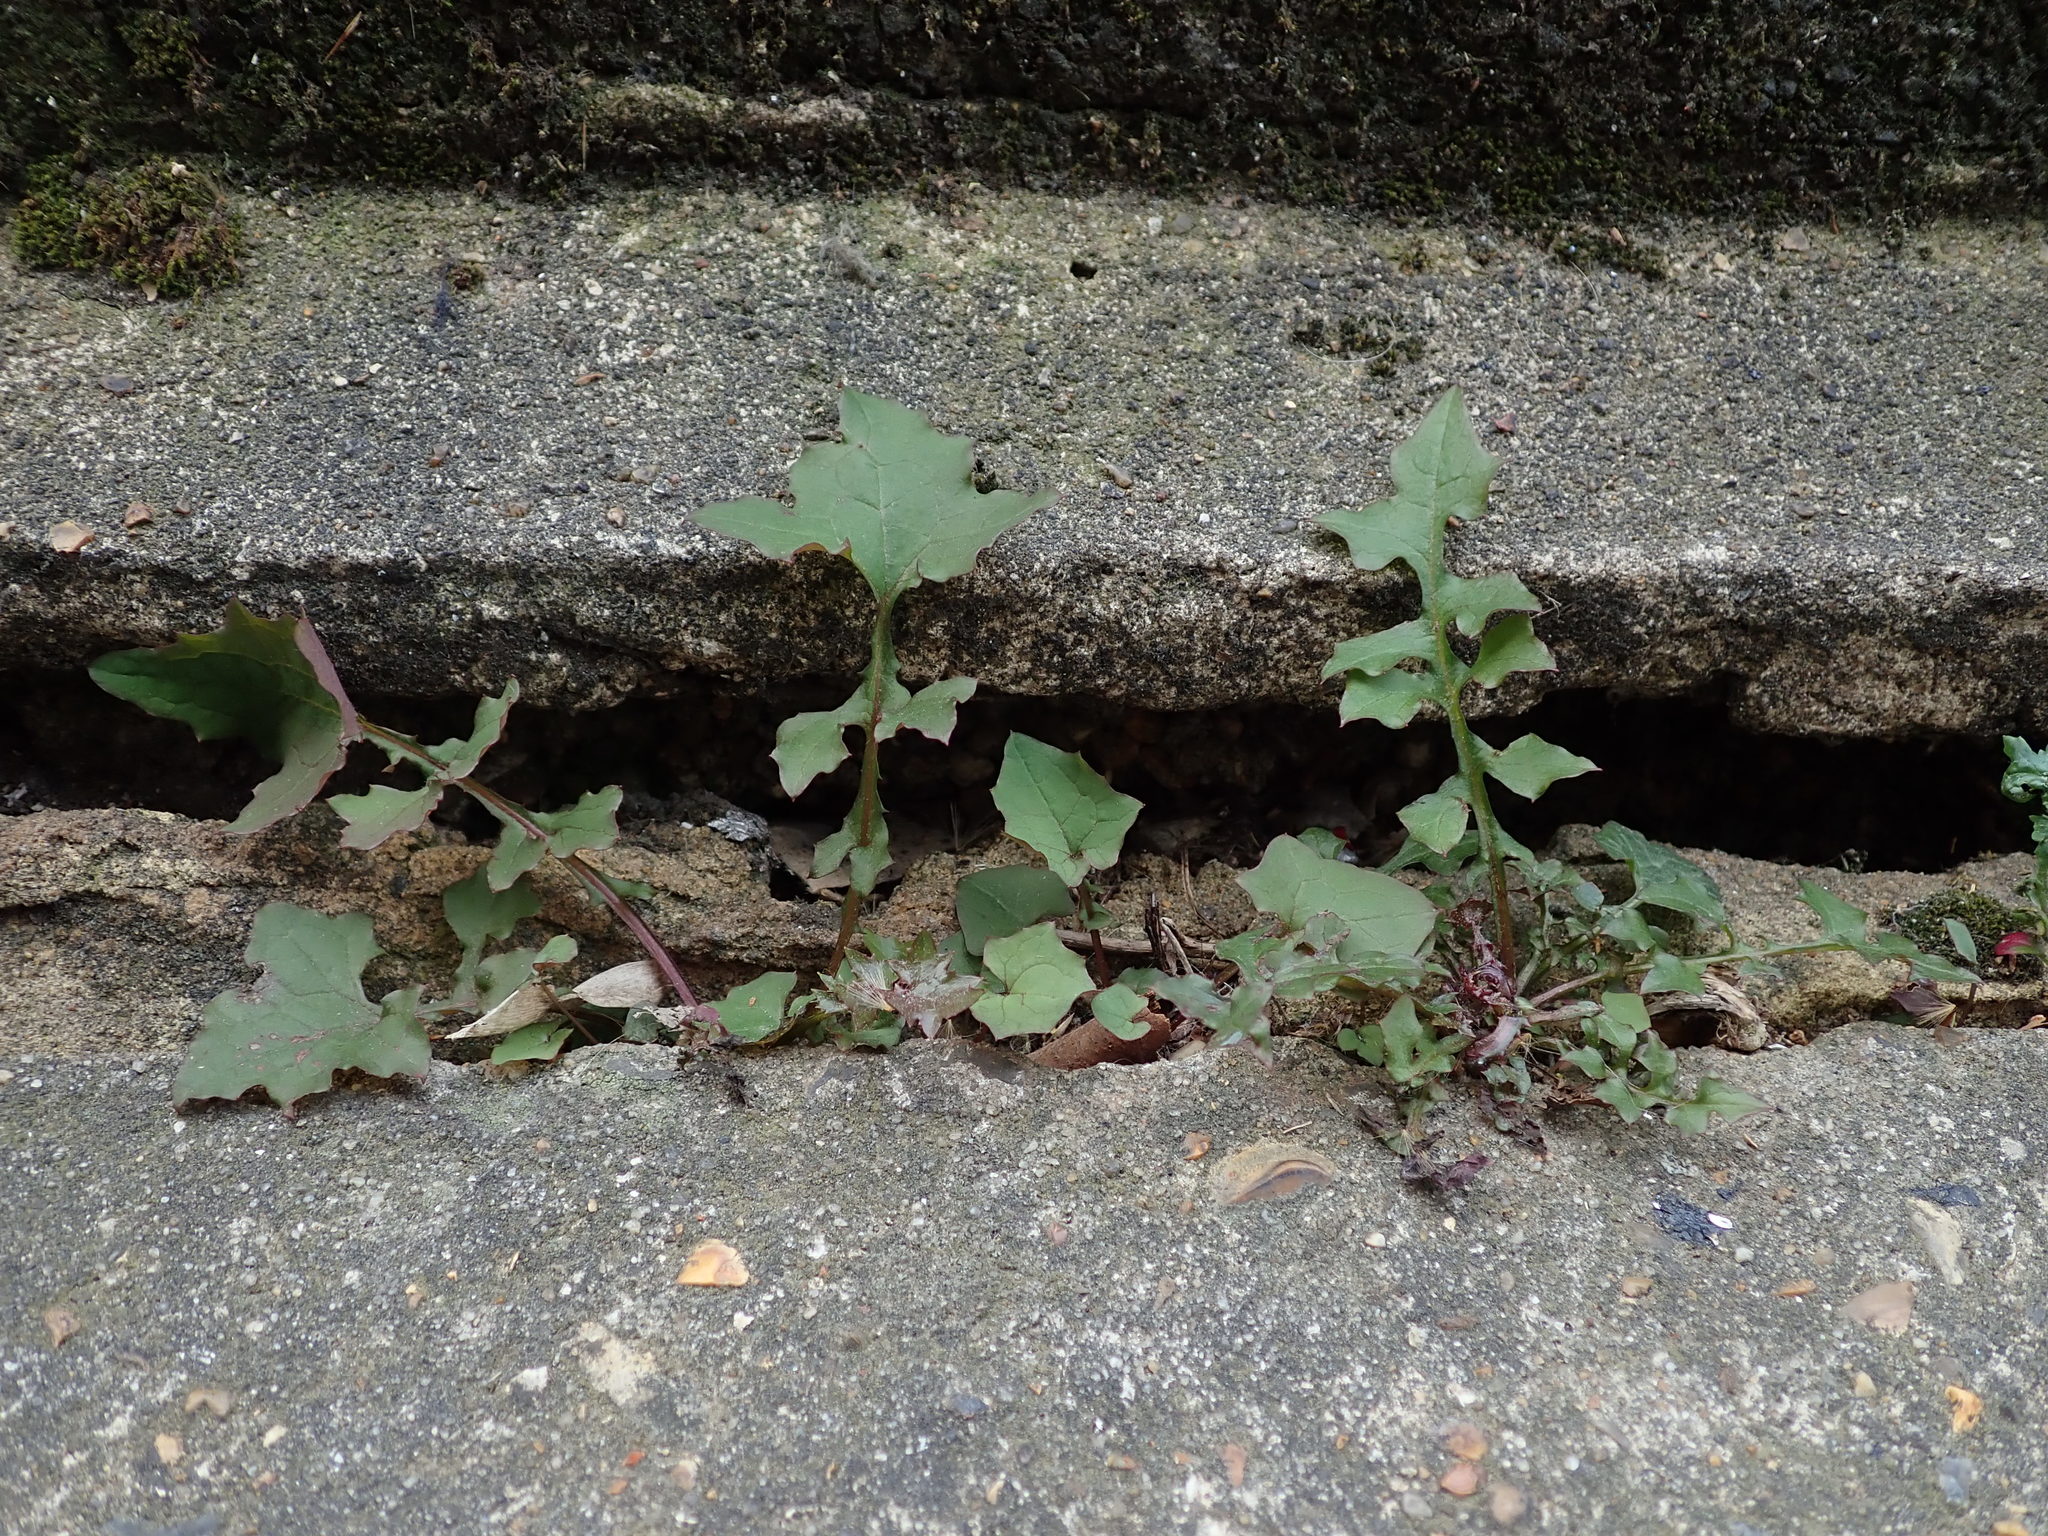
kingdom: Plantae
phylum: Tracheophyta
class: Magnoliopsida
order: Asterales
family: Asteraceae
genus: Mycelis
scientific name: Mycelis muralis
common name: Wall lettuce
